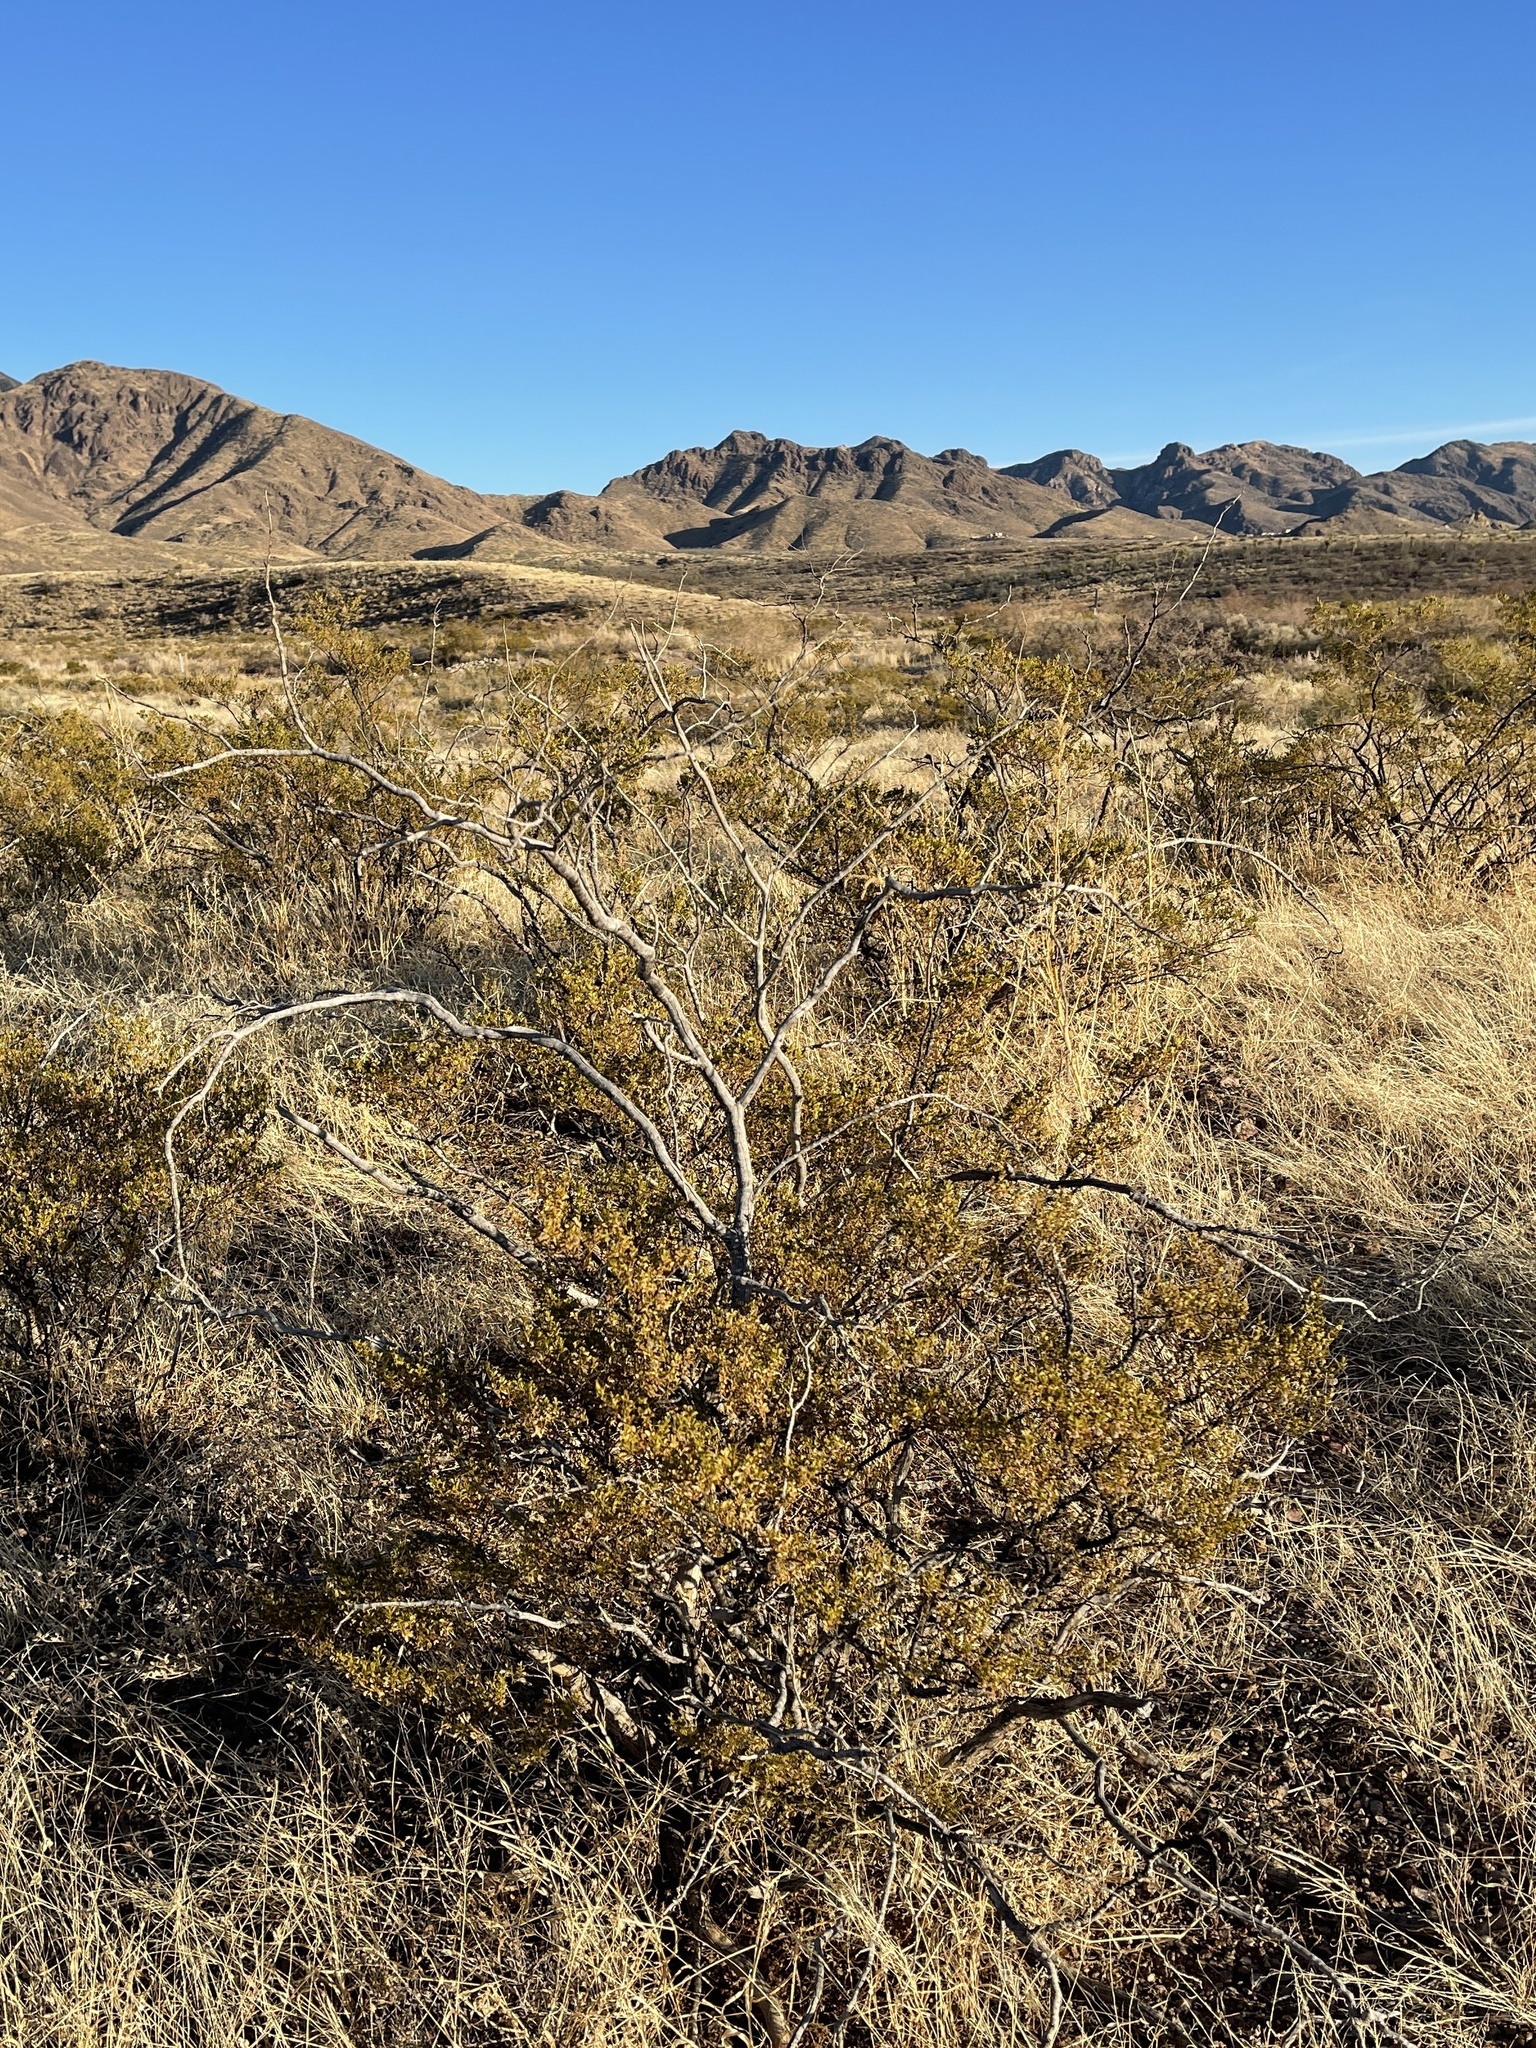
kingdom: Plantae
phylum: Tracheophyta
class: Magnoliopsida
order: Zygophyllales
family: Zygophyllaceae
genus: Larrea
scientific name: Larrea tridentata
